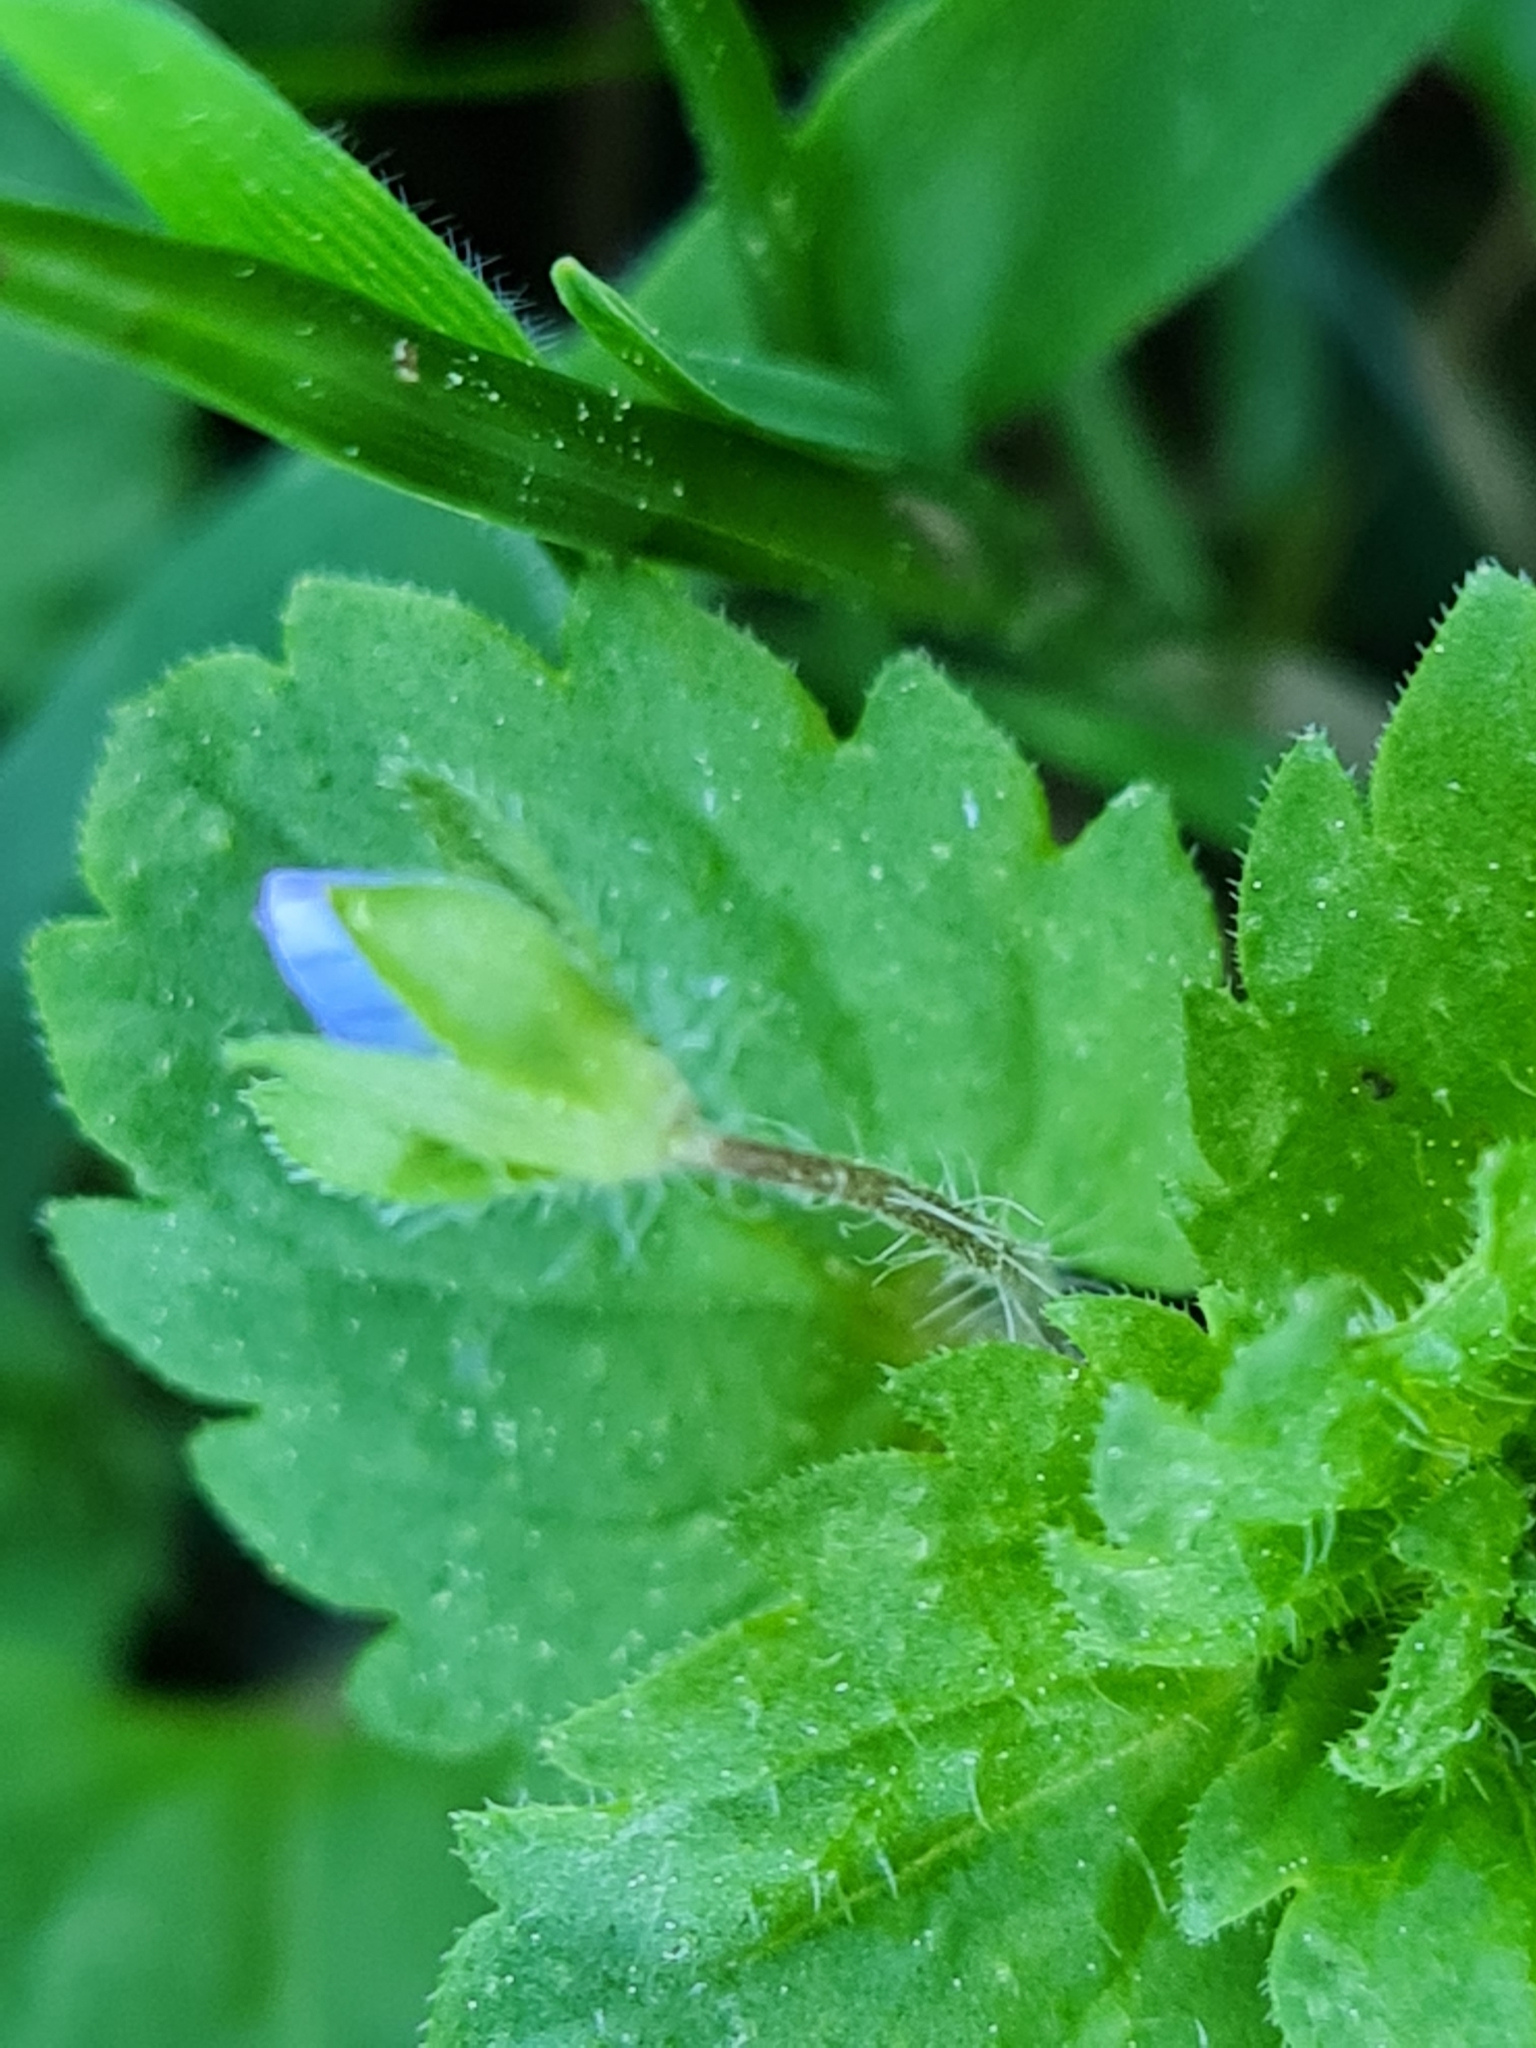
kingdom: Plantae
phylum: Tracheophyta
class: Magnoliopsida
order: Lamiales
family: Plantaginaceae
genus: Veronica
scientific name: Veronica persica
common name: Common field-speedwell
